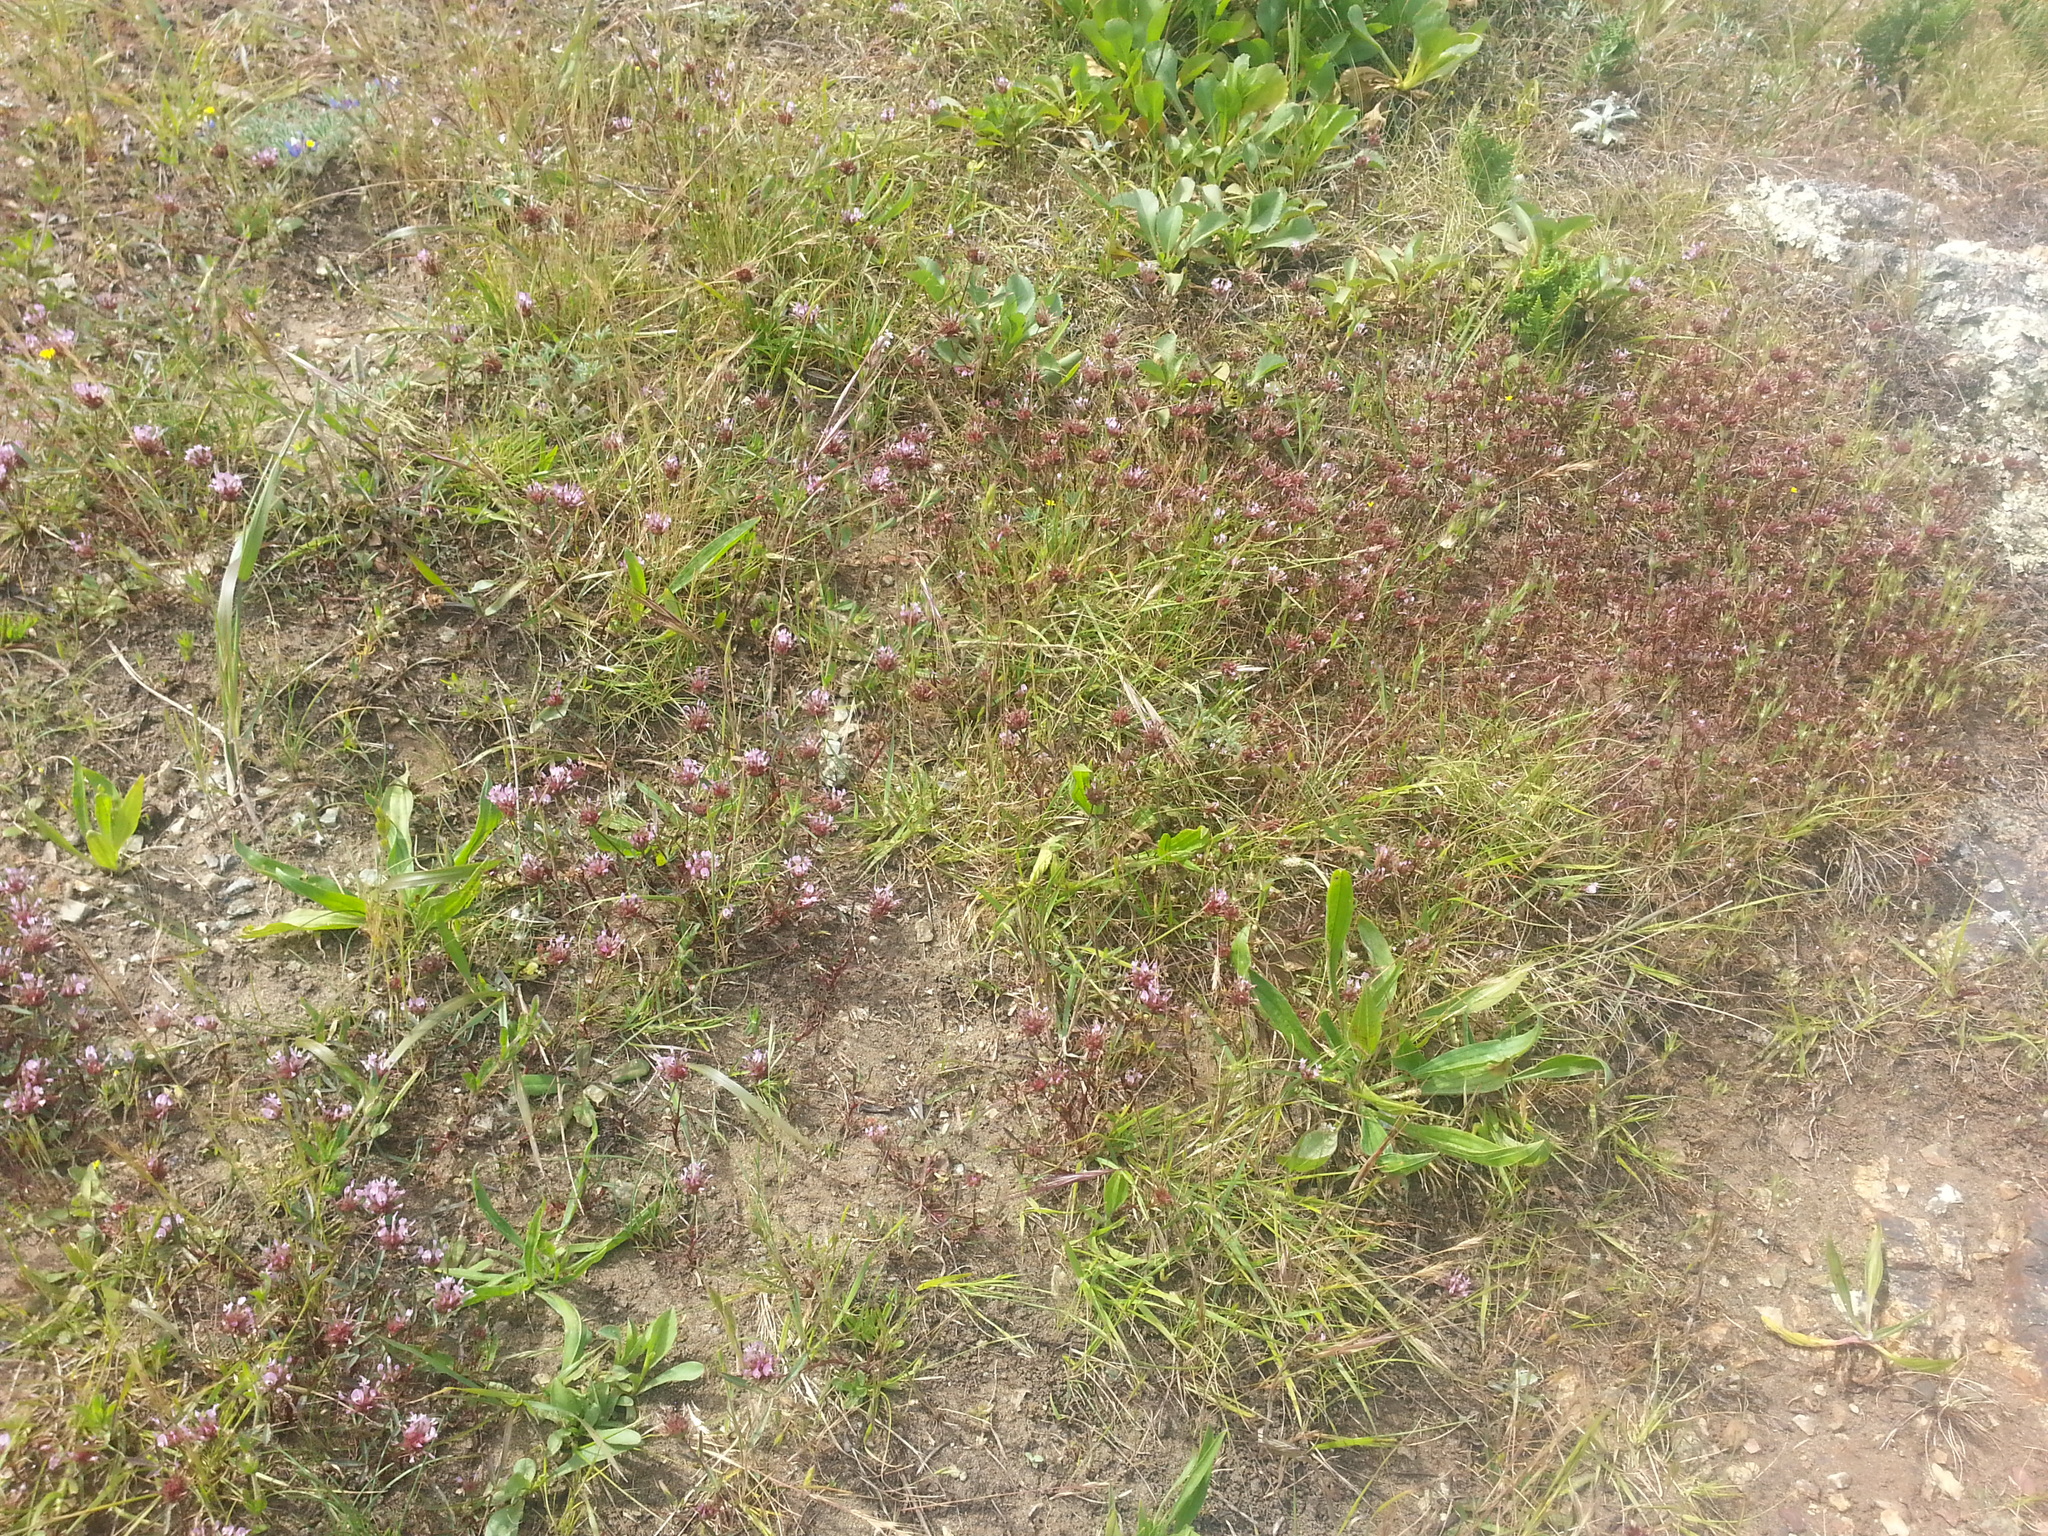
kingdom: Plantae
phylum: Tracheophyta
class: Magnoliopsida
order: Fabales
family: Fabaceae
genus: Trifolium
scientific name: Trifolium willdenovii
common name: Tomcat clover
